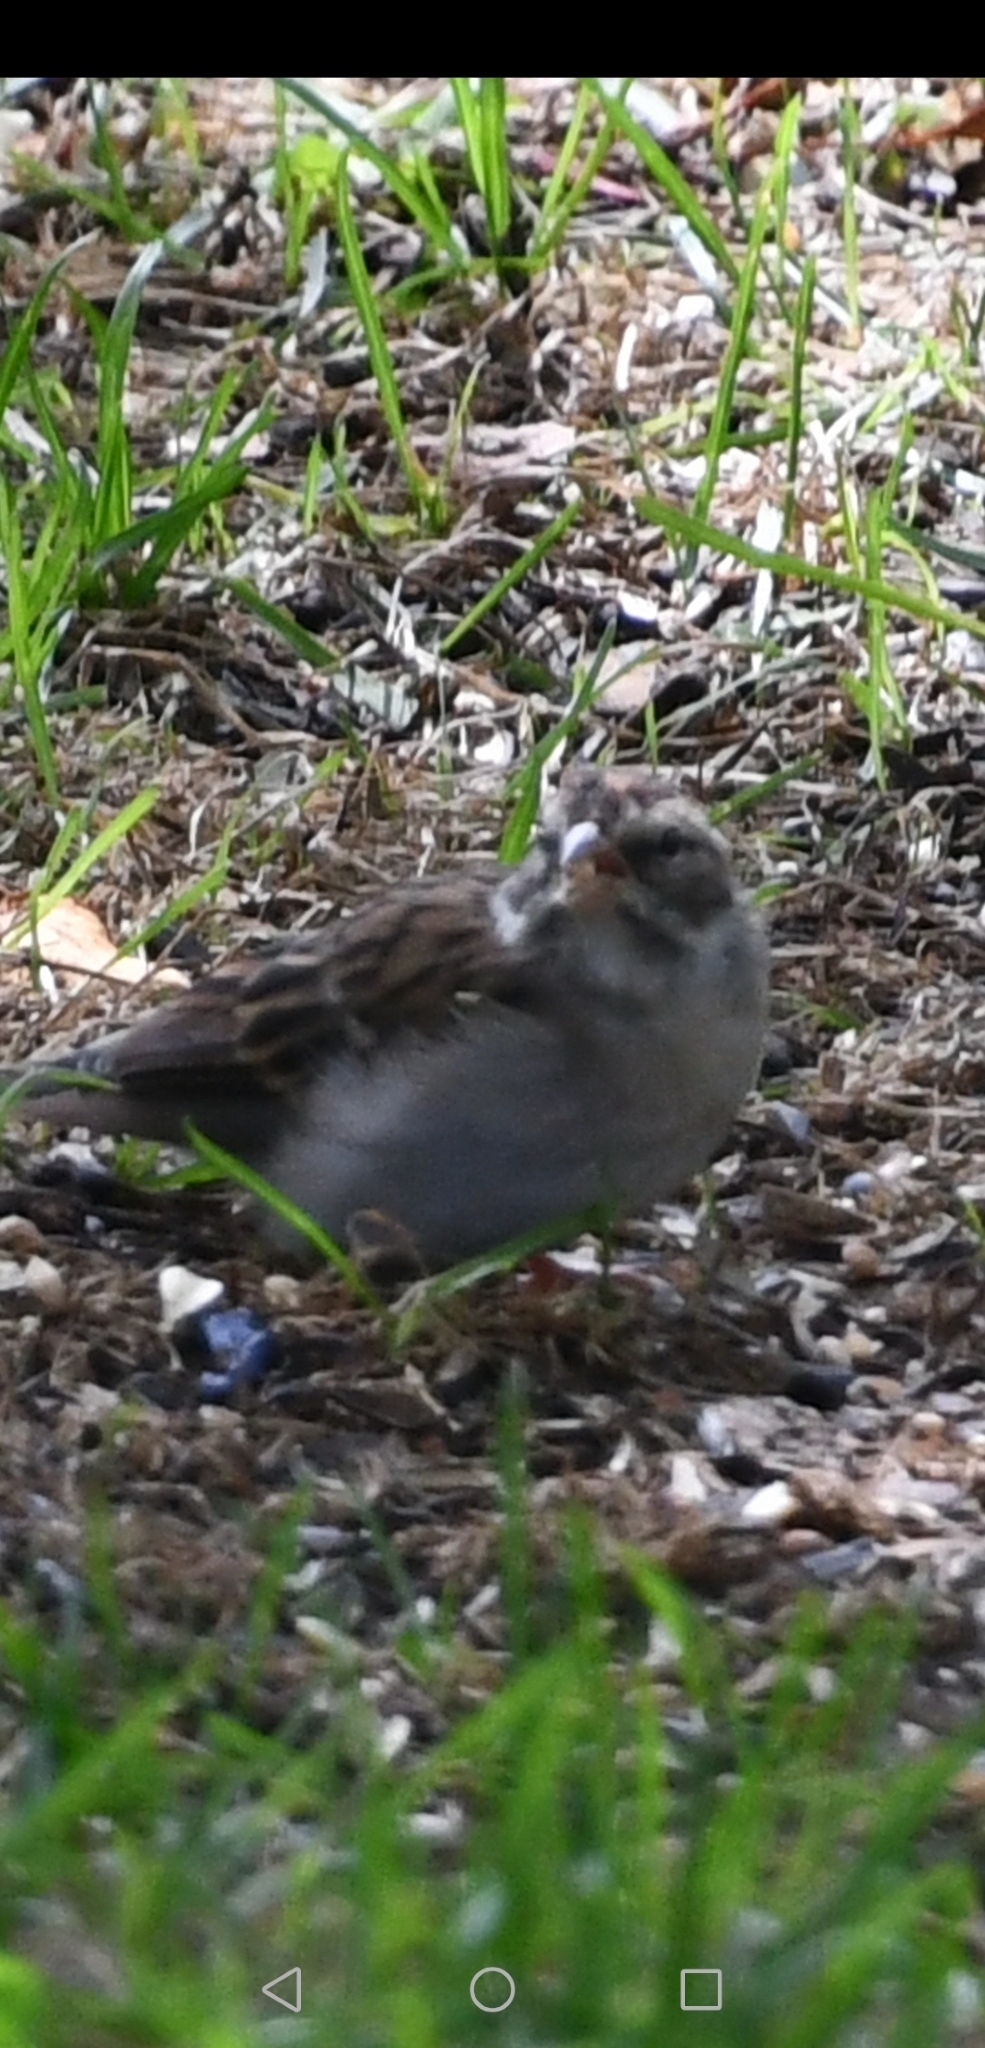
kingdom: Animalia
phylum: Chordata
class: Aves
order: Passeriformes
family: Passerellidae
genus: Spizella
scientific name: Spizella pallida
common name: Clay-colored sparrow
